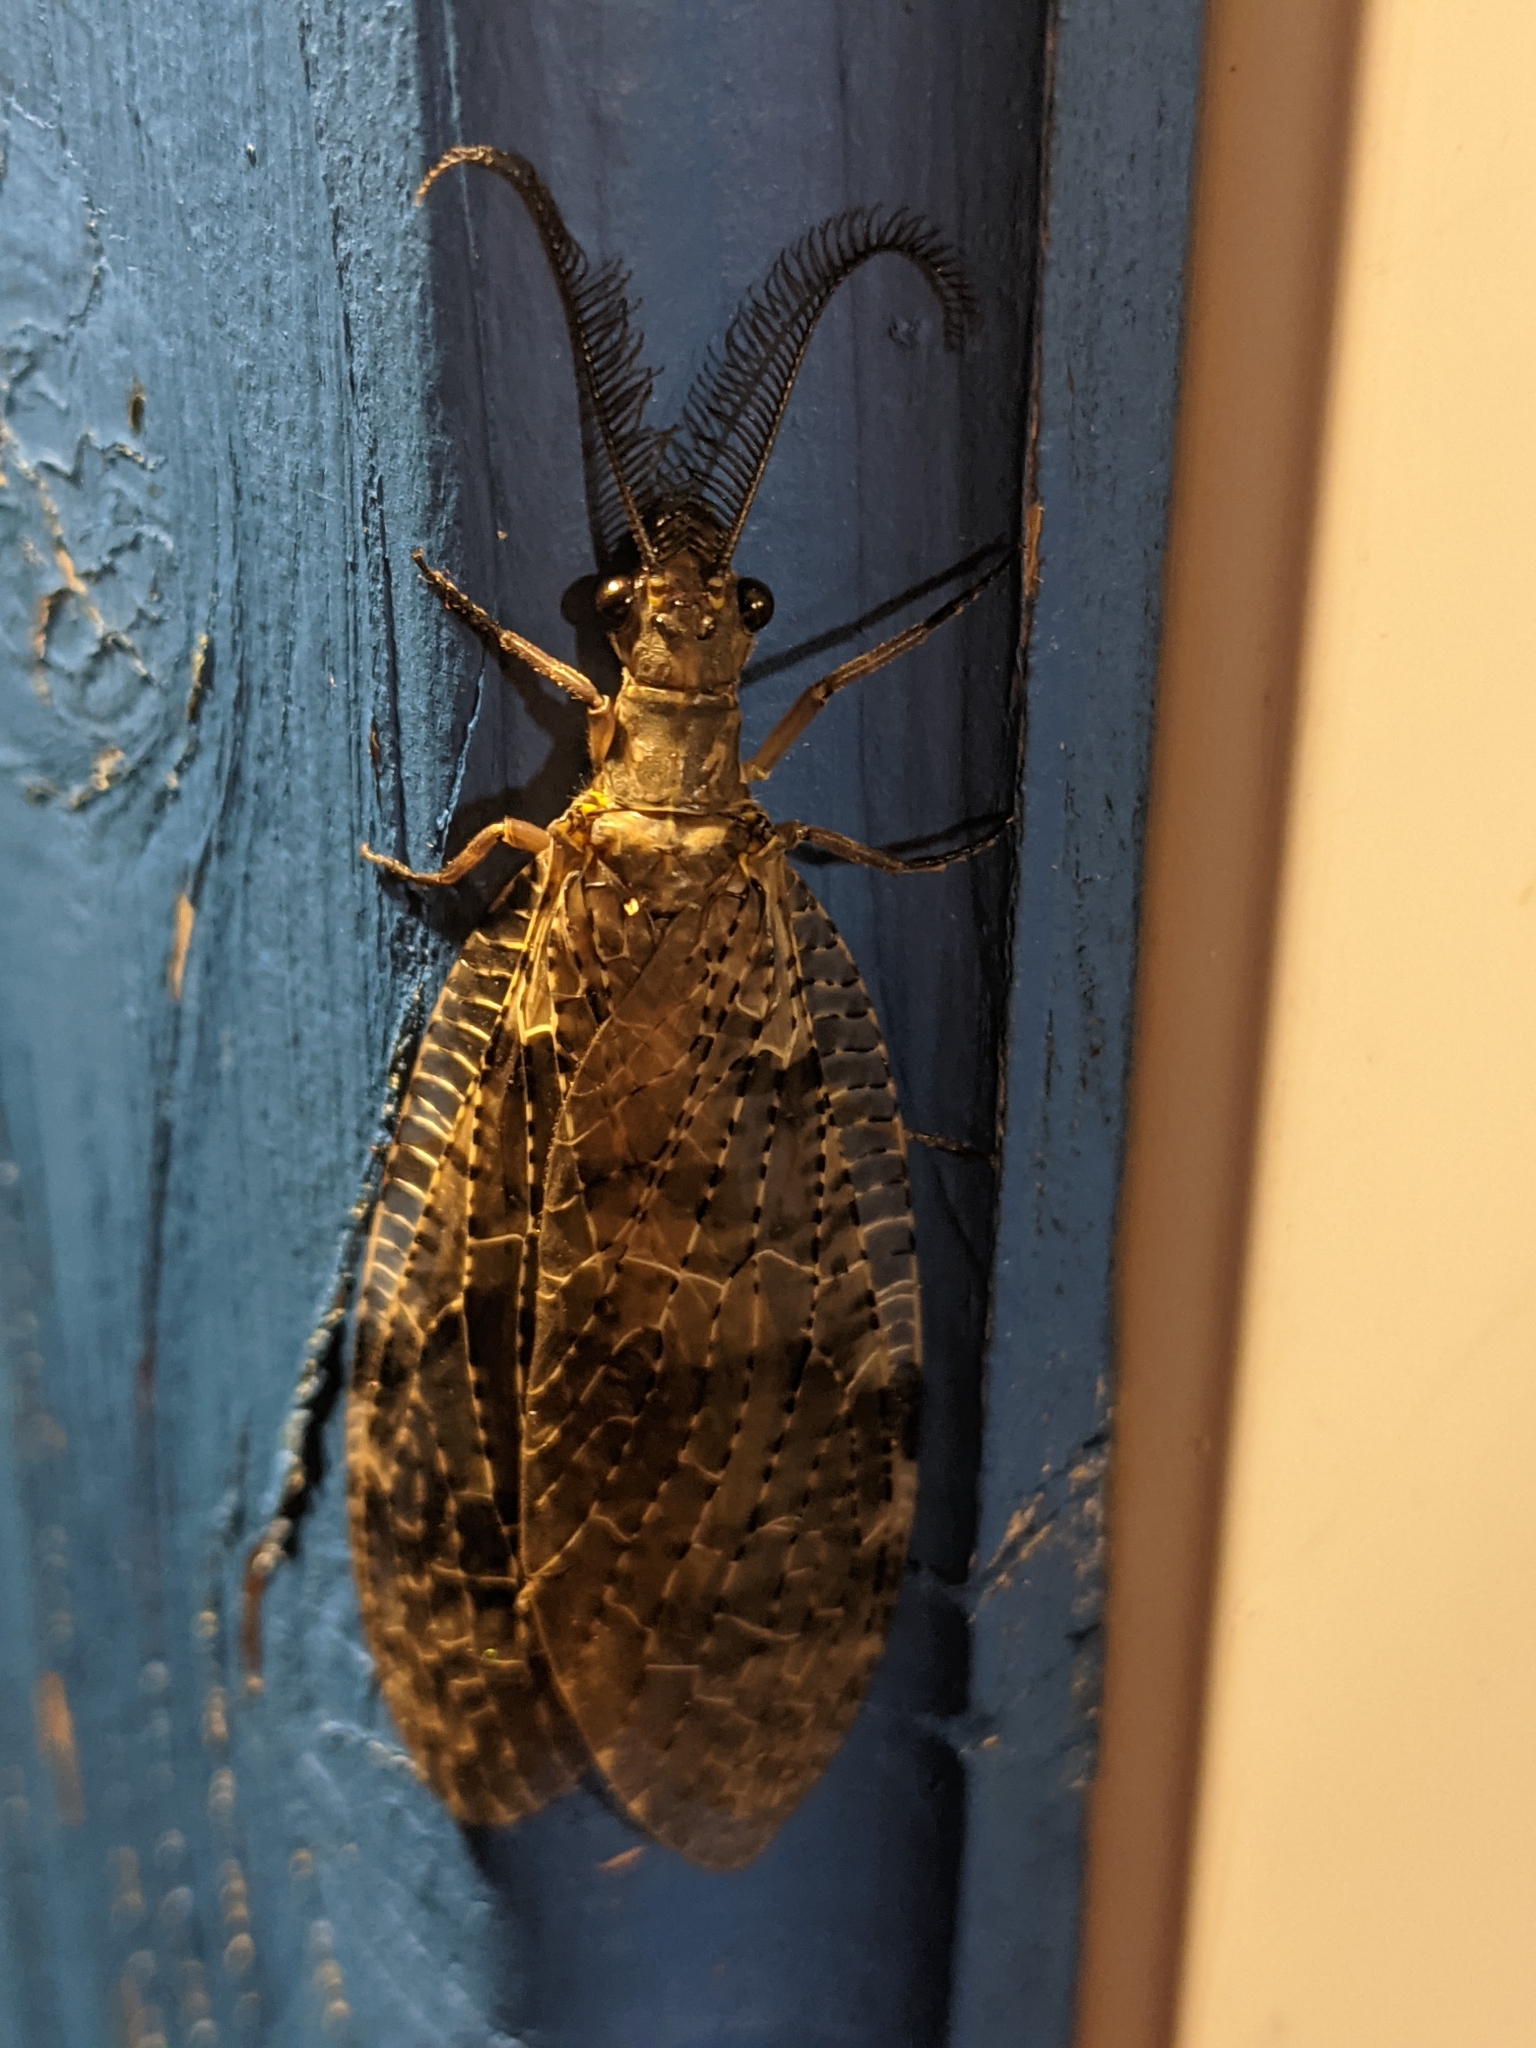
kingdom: Animalia
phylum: Arthropoda
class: Insecta
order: Megaloptera
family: Corydalidae
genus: Chauliodes
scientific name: Chauliodes pectinicornis
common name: Summer fishfly
